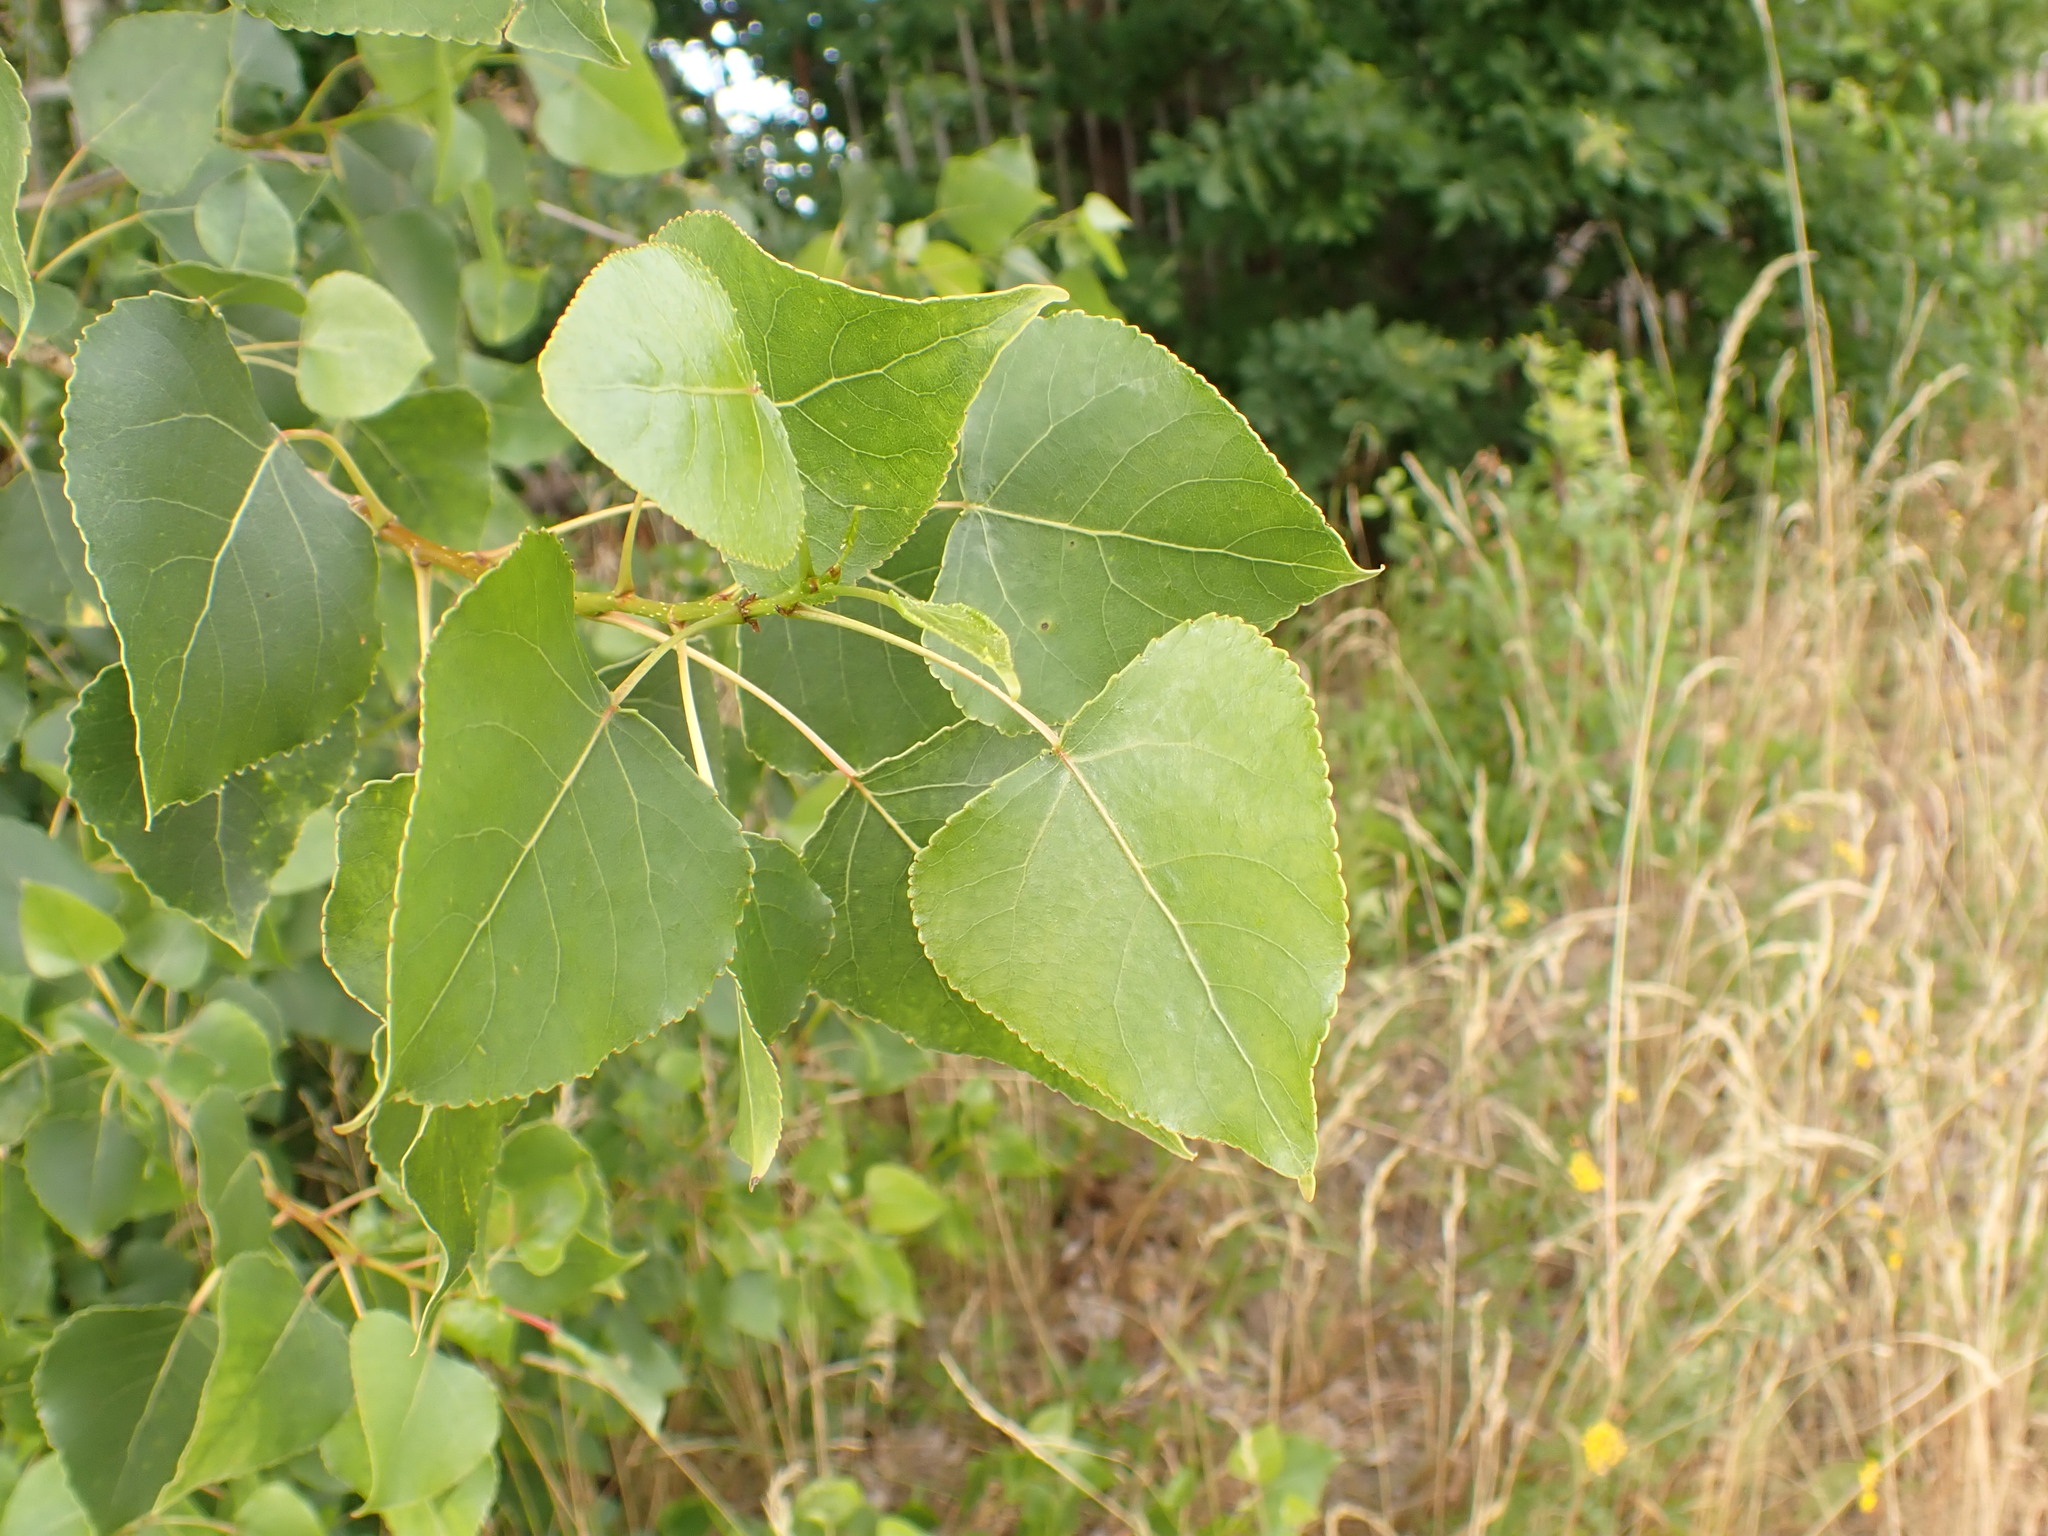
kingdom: Plantae
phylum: Tracheophyta
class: Magnoliopsida
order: Malpighiales
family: Salicaceae
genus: Populus
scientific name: Populus canadensis
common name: Carolina poplar
